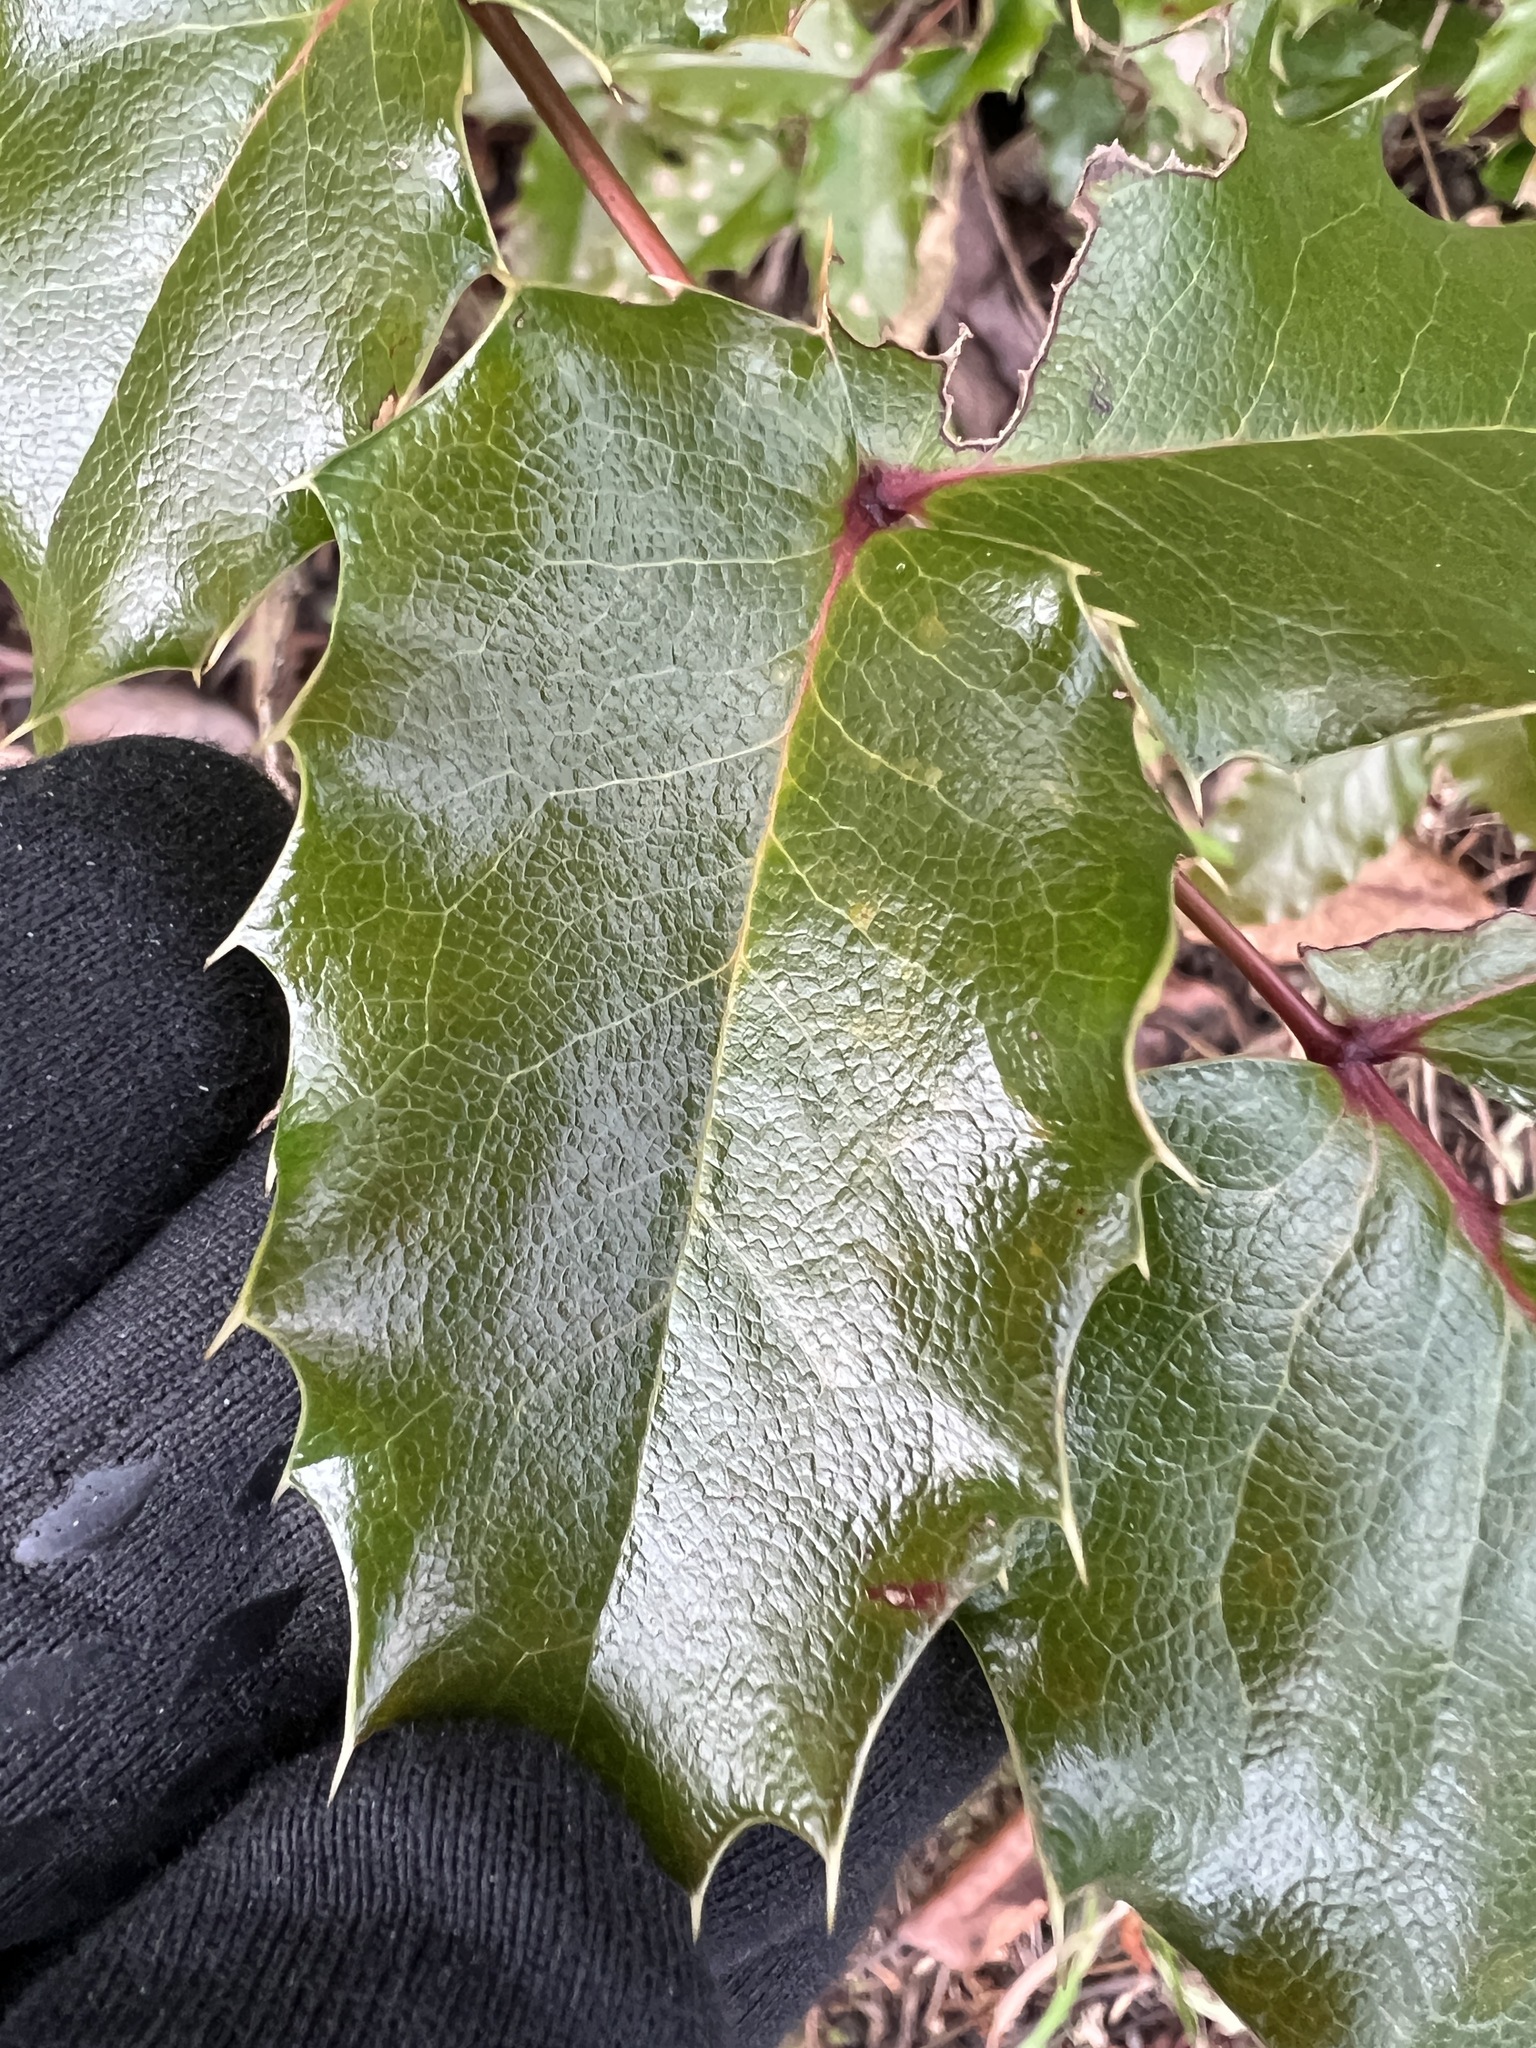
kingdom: Plantae
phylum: Tracheophyta
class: Magnoliopsida
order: Ranunculales
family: Berberidaceae
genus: Mahonia
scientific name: Mahonia aquifolium
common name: Oregon-grape
